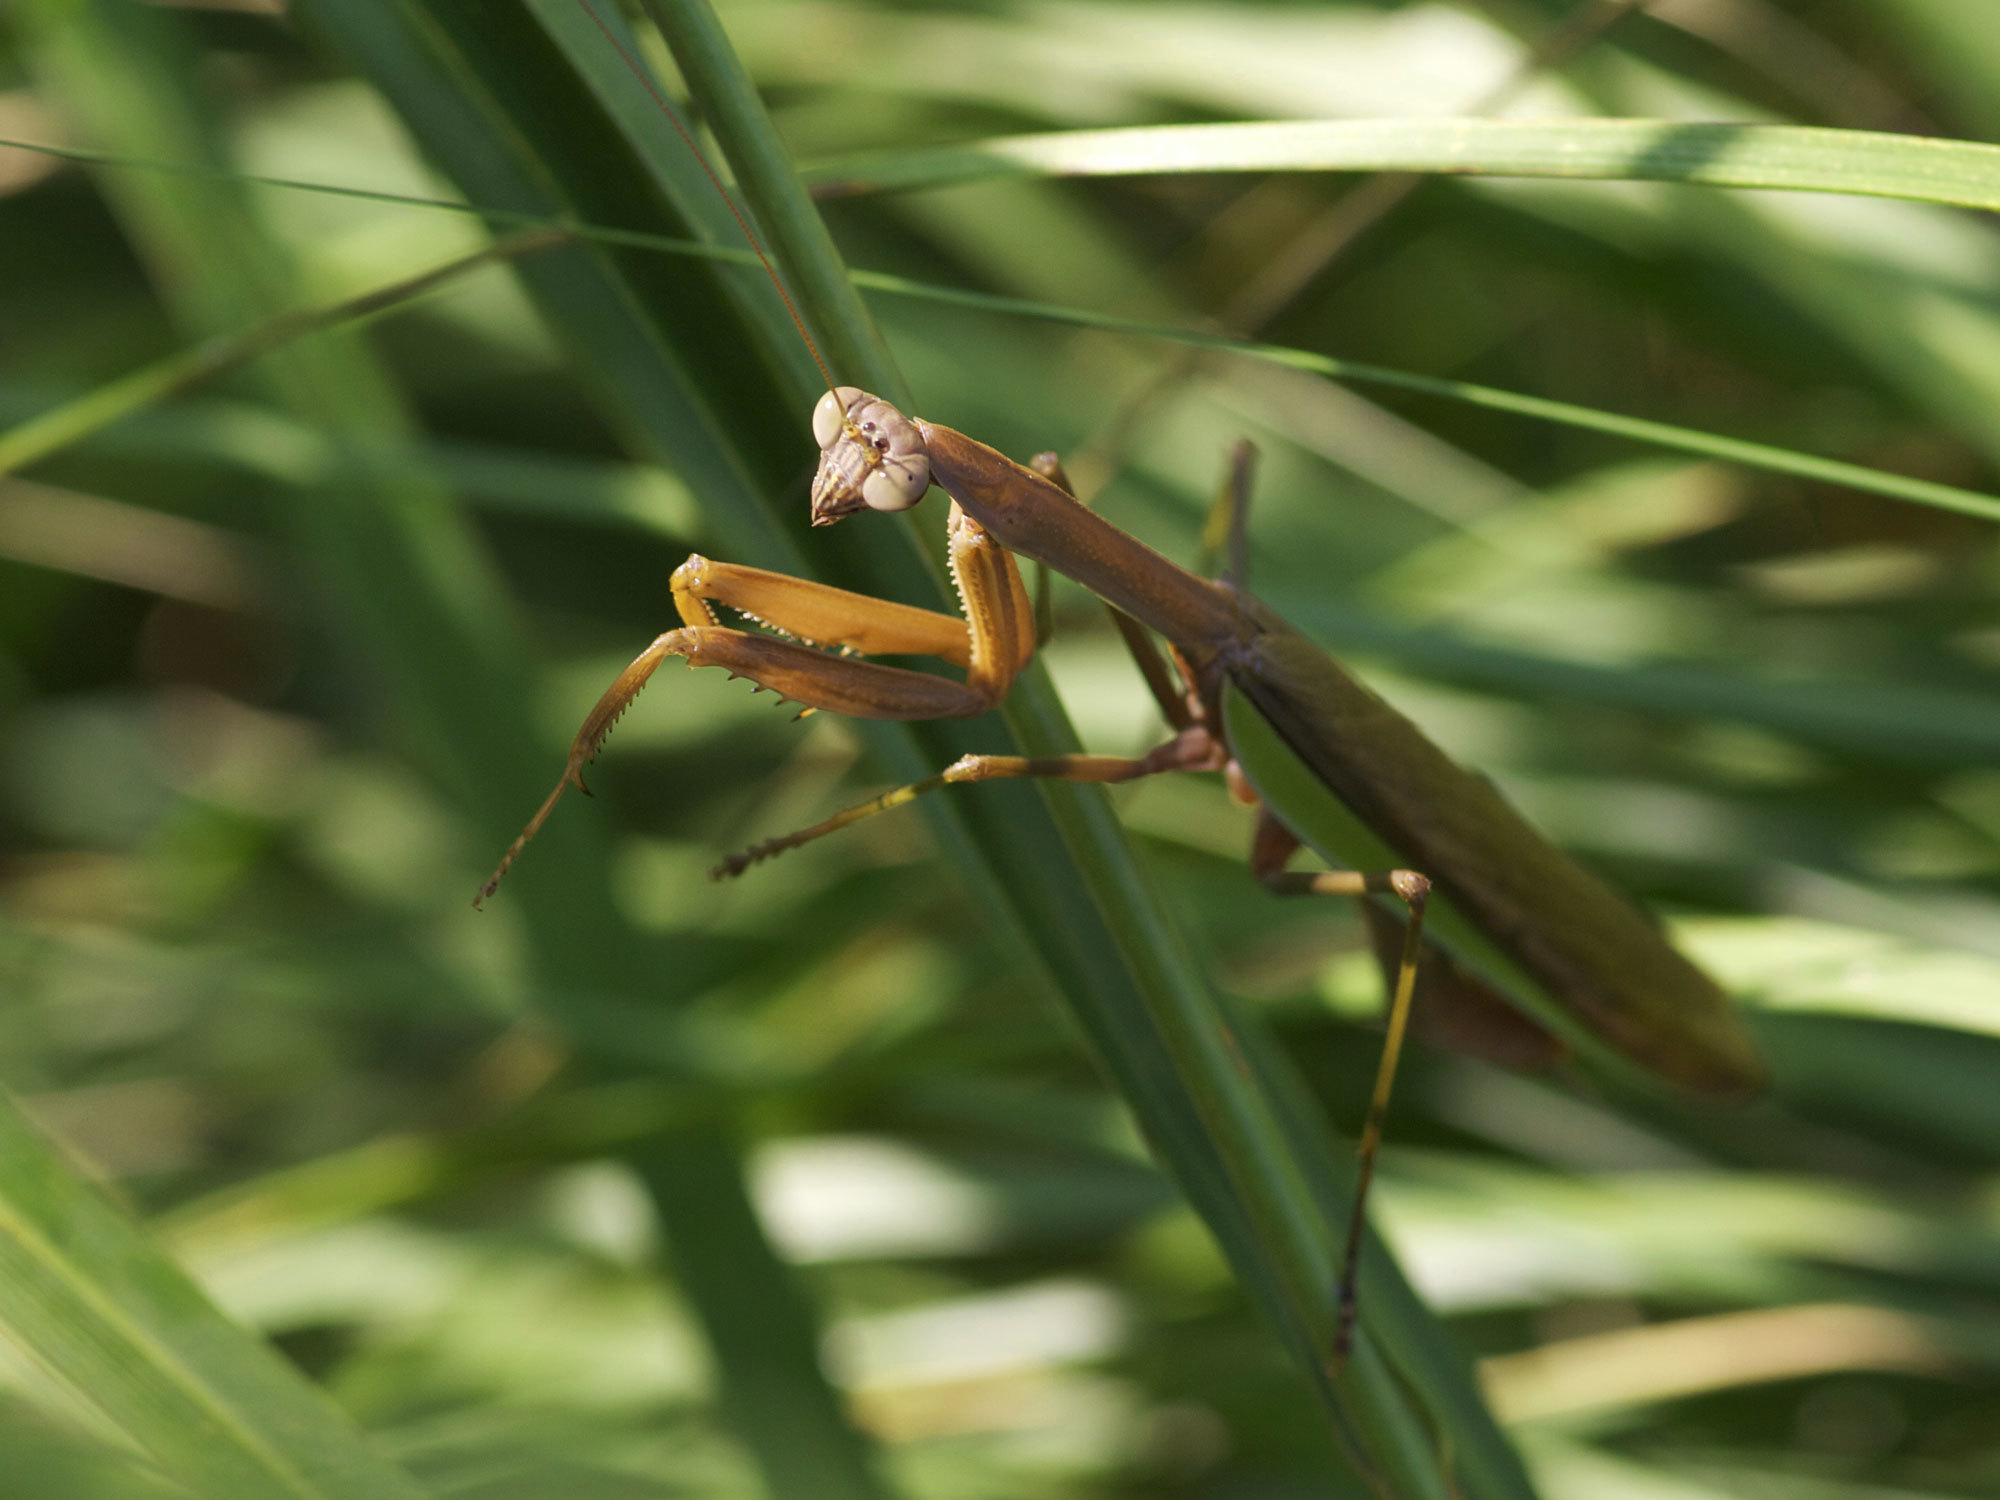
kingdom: Animalia
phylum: Arthropoda
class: Insecta
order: Mantodea
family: Mantidae
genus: Tenodera
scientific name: Tenodera sinensis
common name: Chinese mantis
